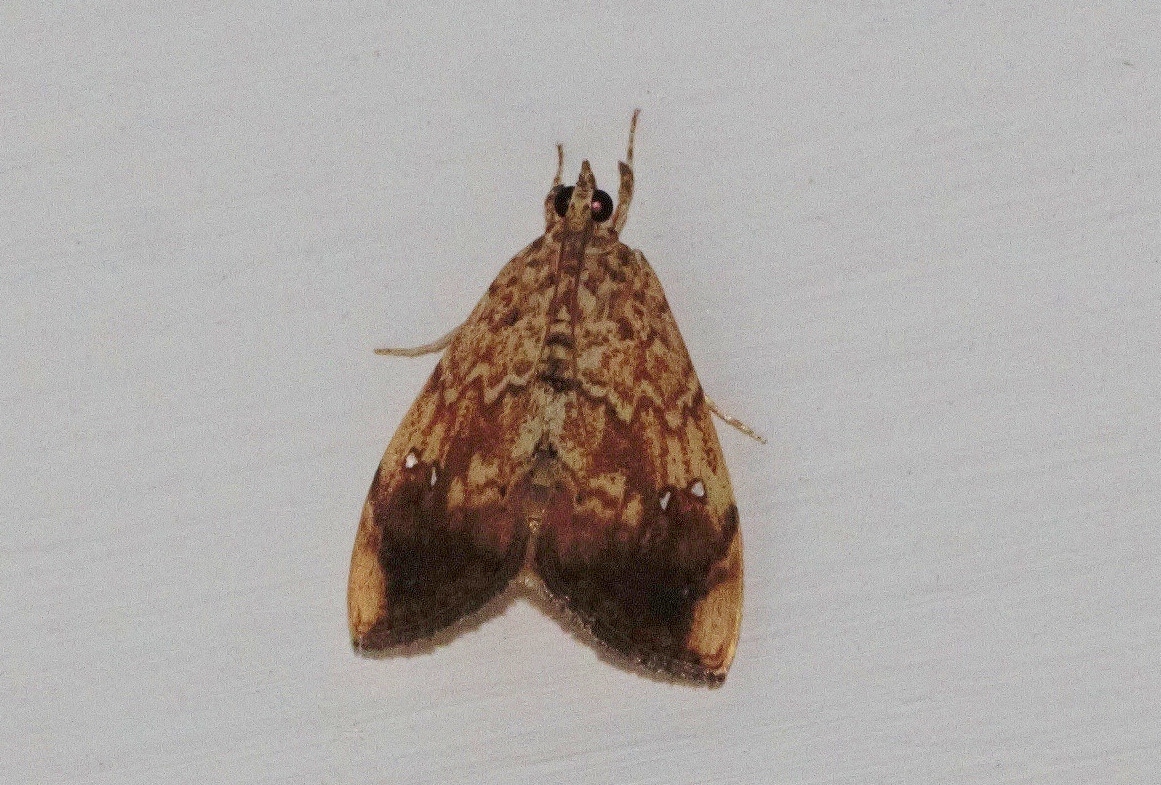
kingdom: Animalia
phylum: Arthropoda
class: Insecta
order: Lepidoptera
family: Crambidae
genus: Crocidolomia
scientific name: Crocidolomia pavonana
